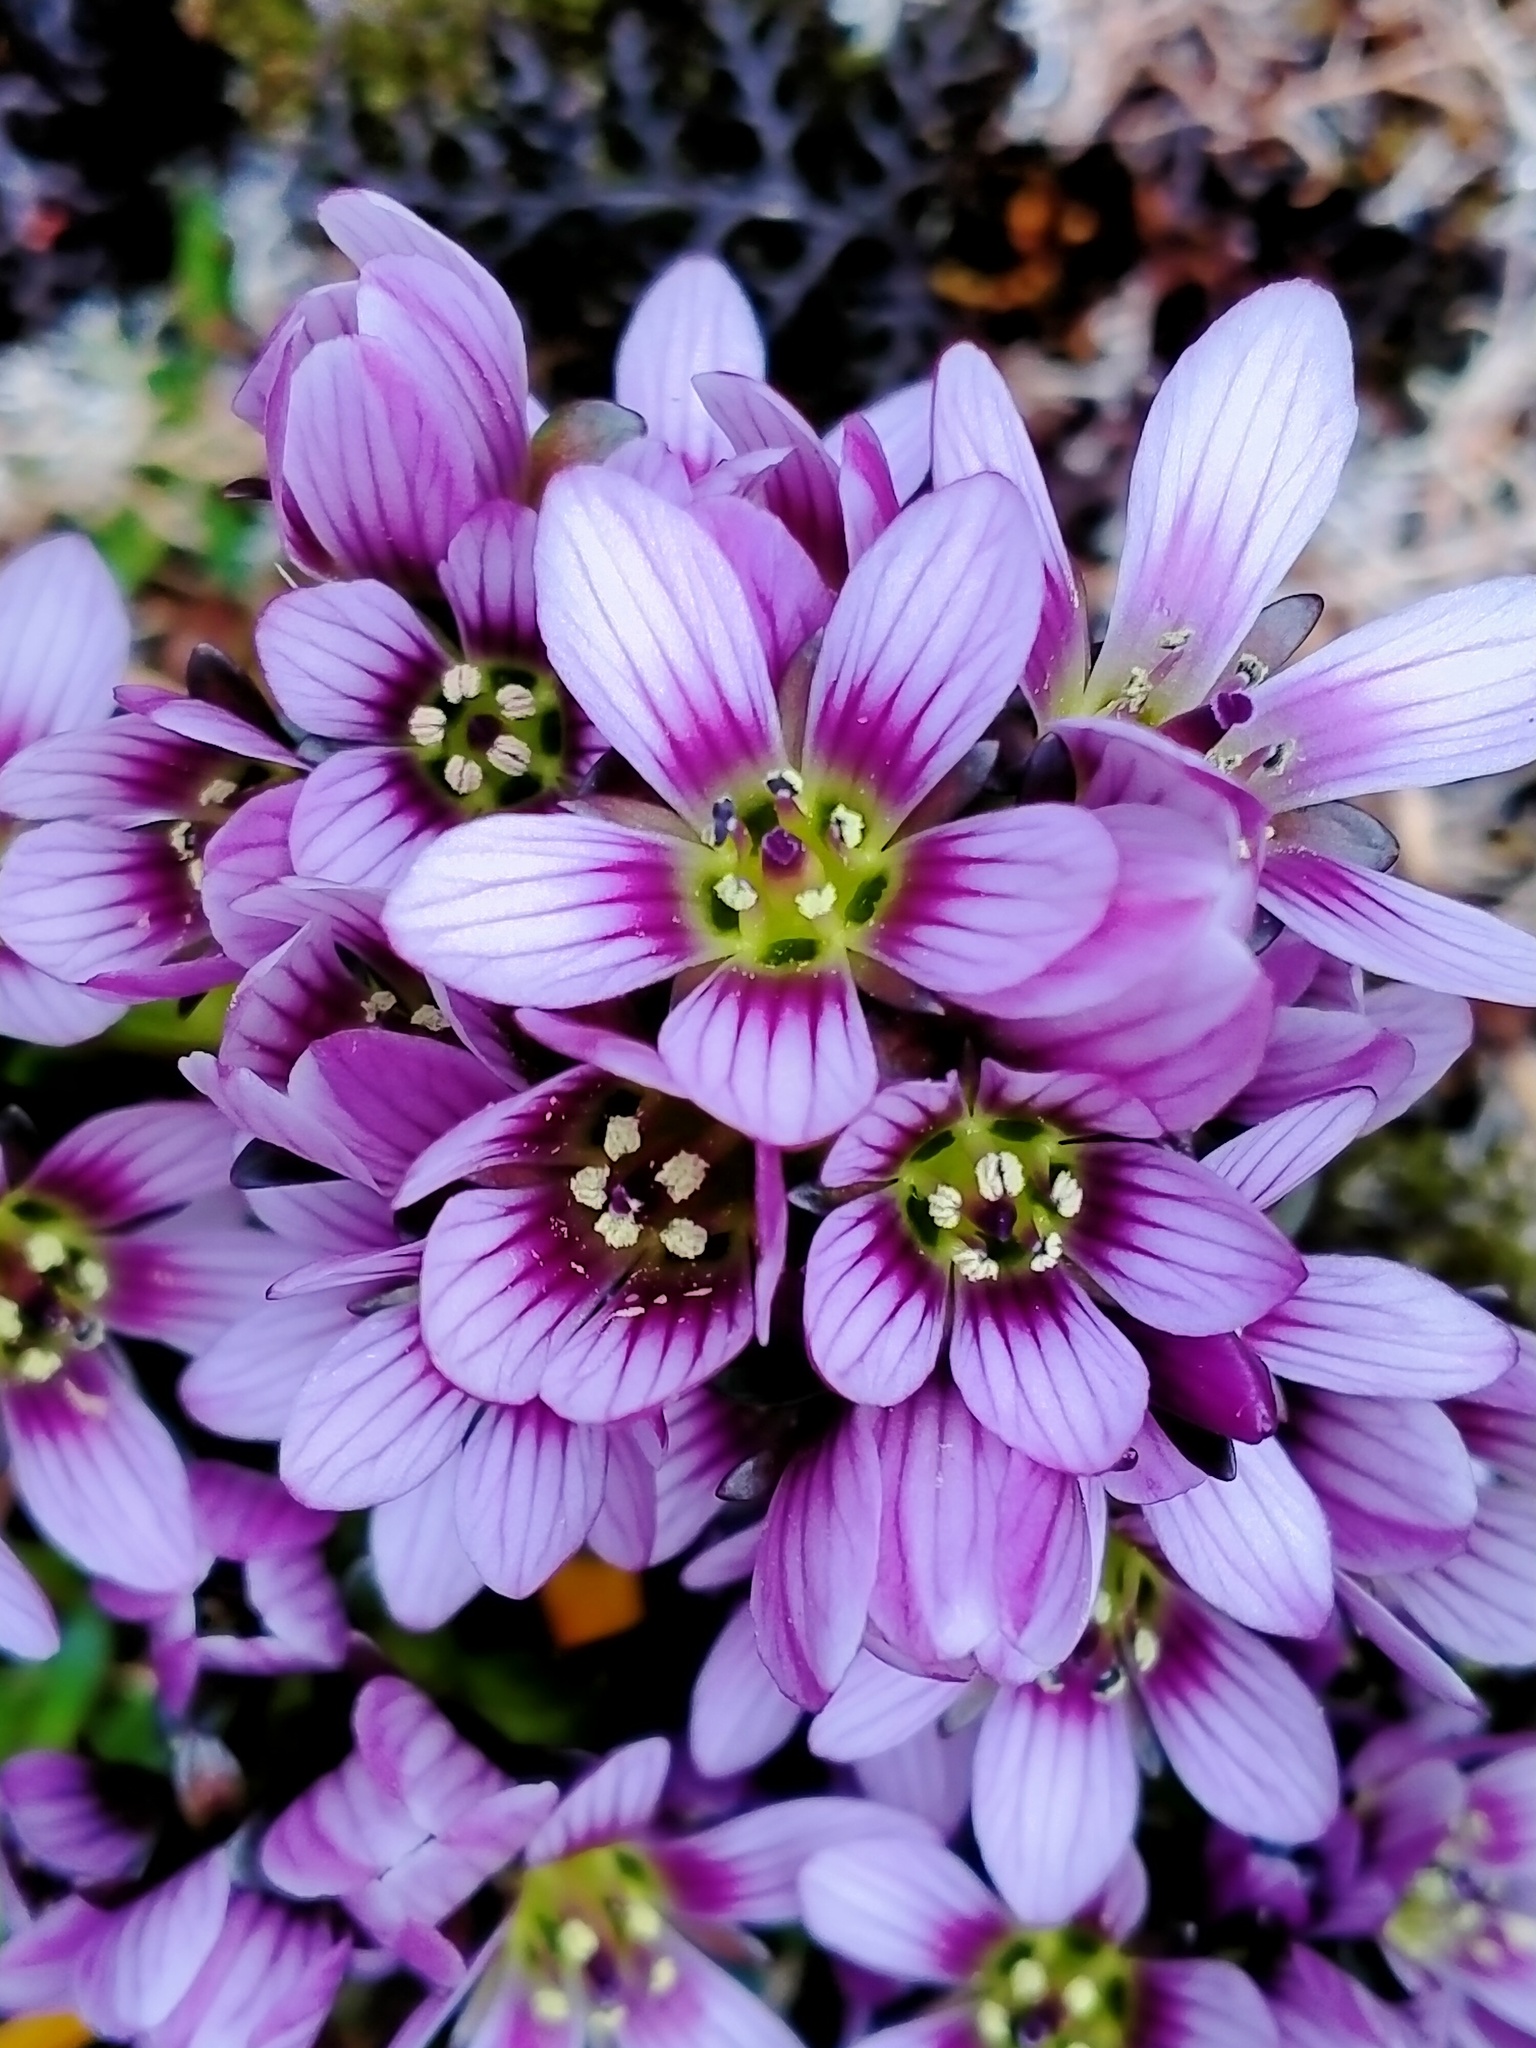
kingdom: Plantae
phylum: Tracheophyta
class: Magnoliopsida
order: Gentianales
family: Gentianaceae
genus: Gentianella
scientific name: Gentianella concinna
